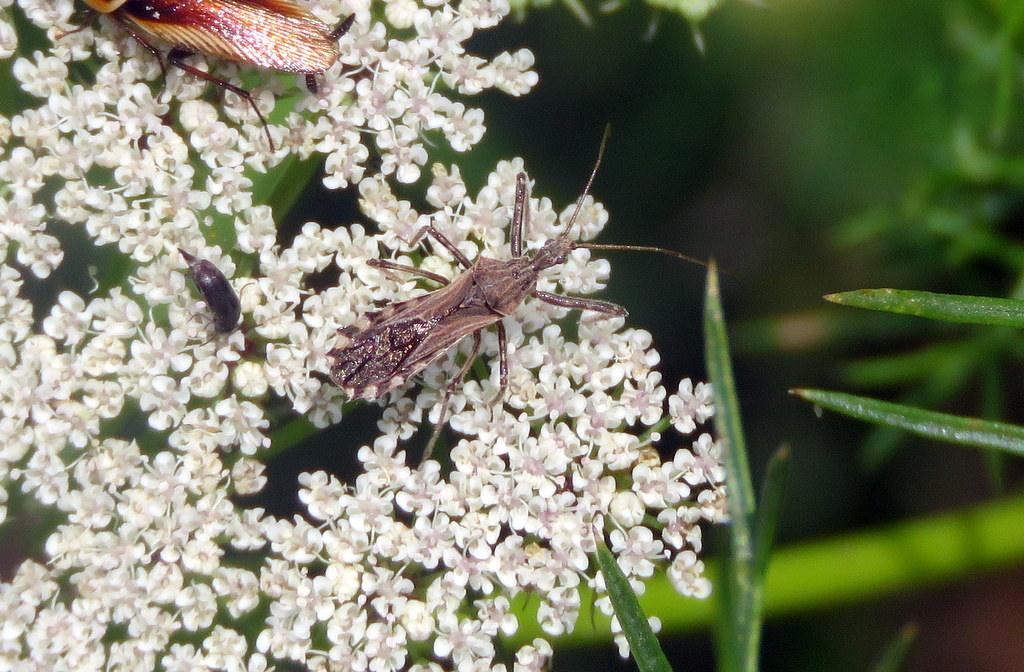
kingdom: Animalia
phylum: Arthropoda
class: Insecta
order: Hemiptera
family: Reduviidae
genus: Atrachelus
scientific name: Atrachelus cinereus
